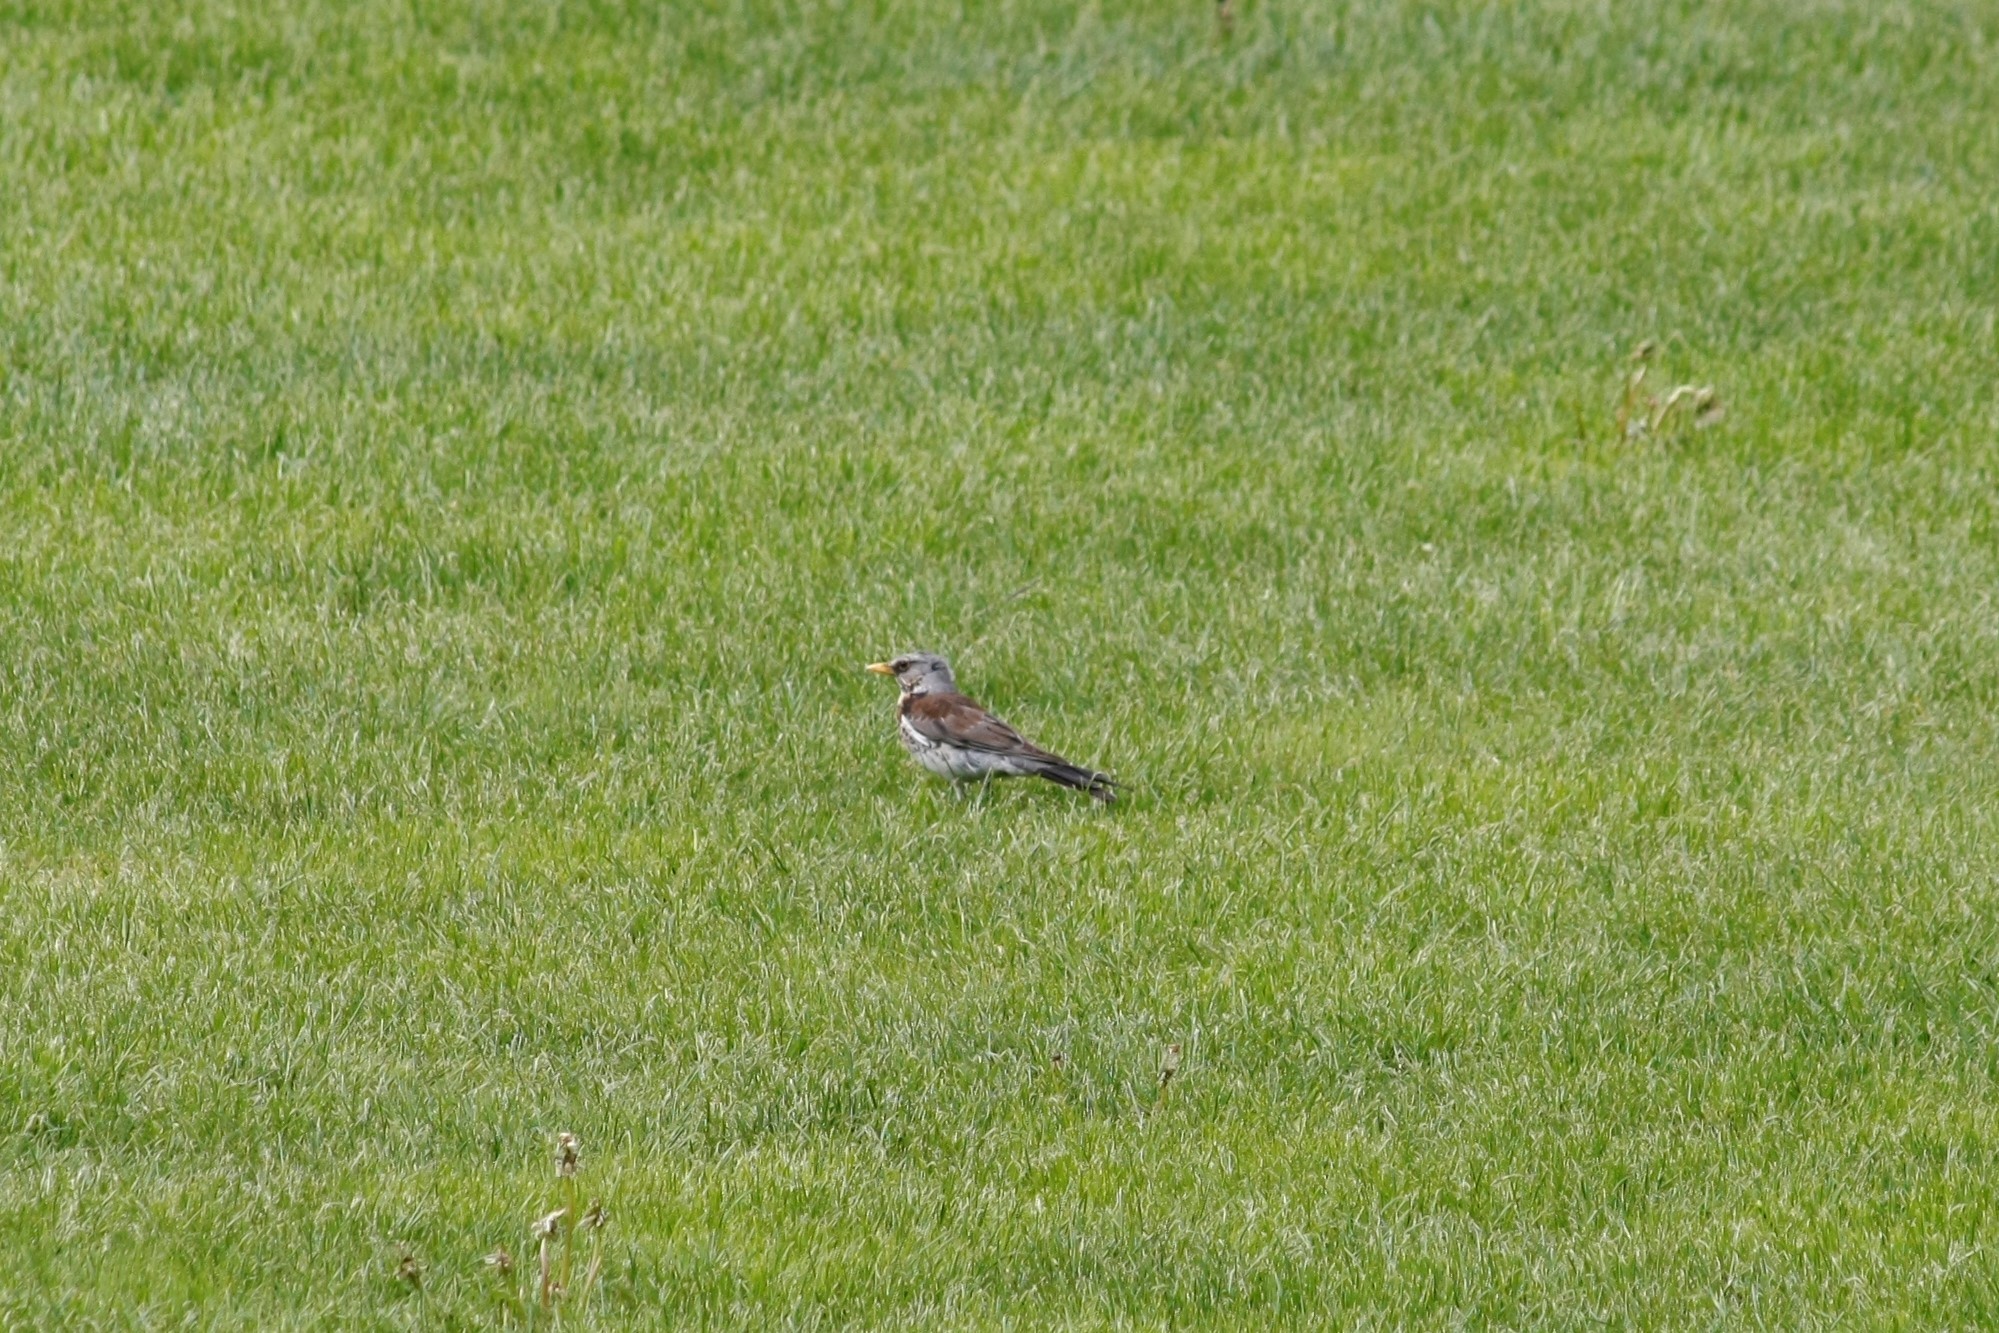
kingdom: Animalia
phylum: Chordata
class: Aves
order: Passeriformes
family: Turdidae
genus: Turdus
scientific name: Turdus pilaris
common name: Fieldfare
